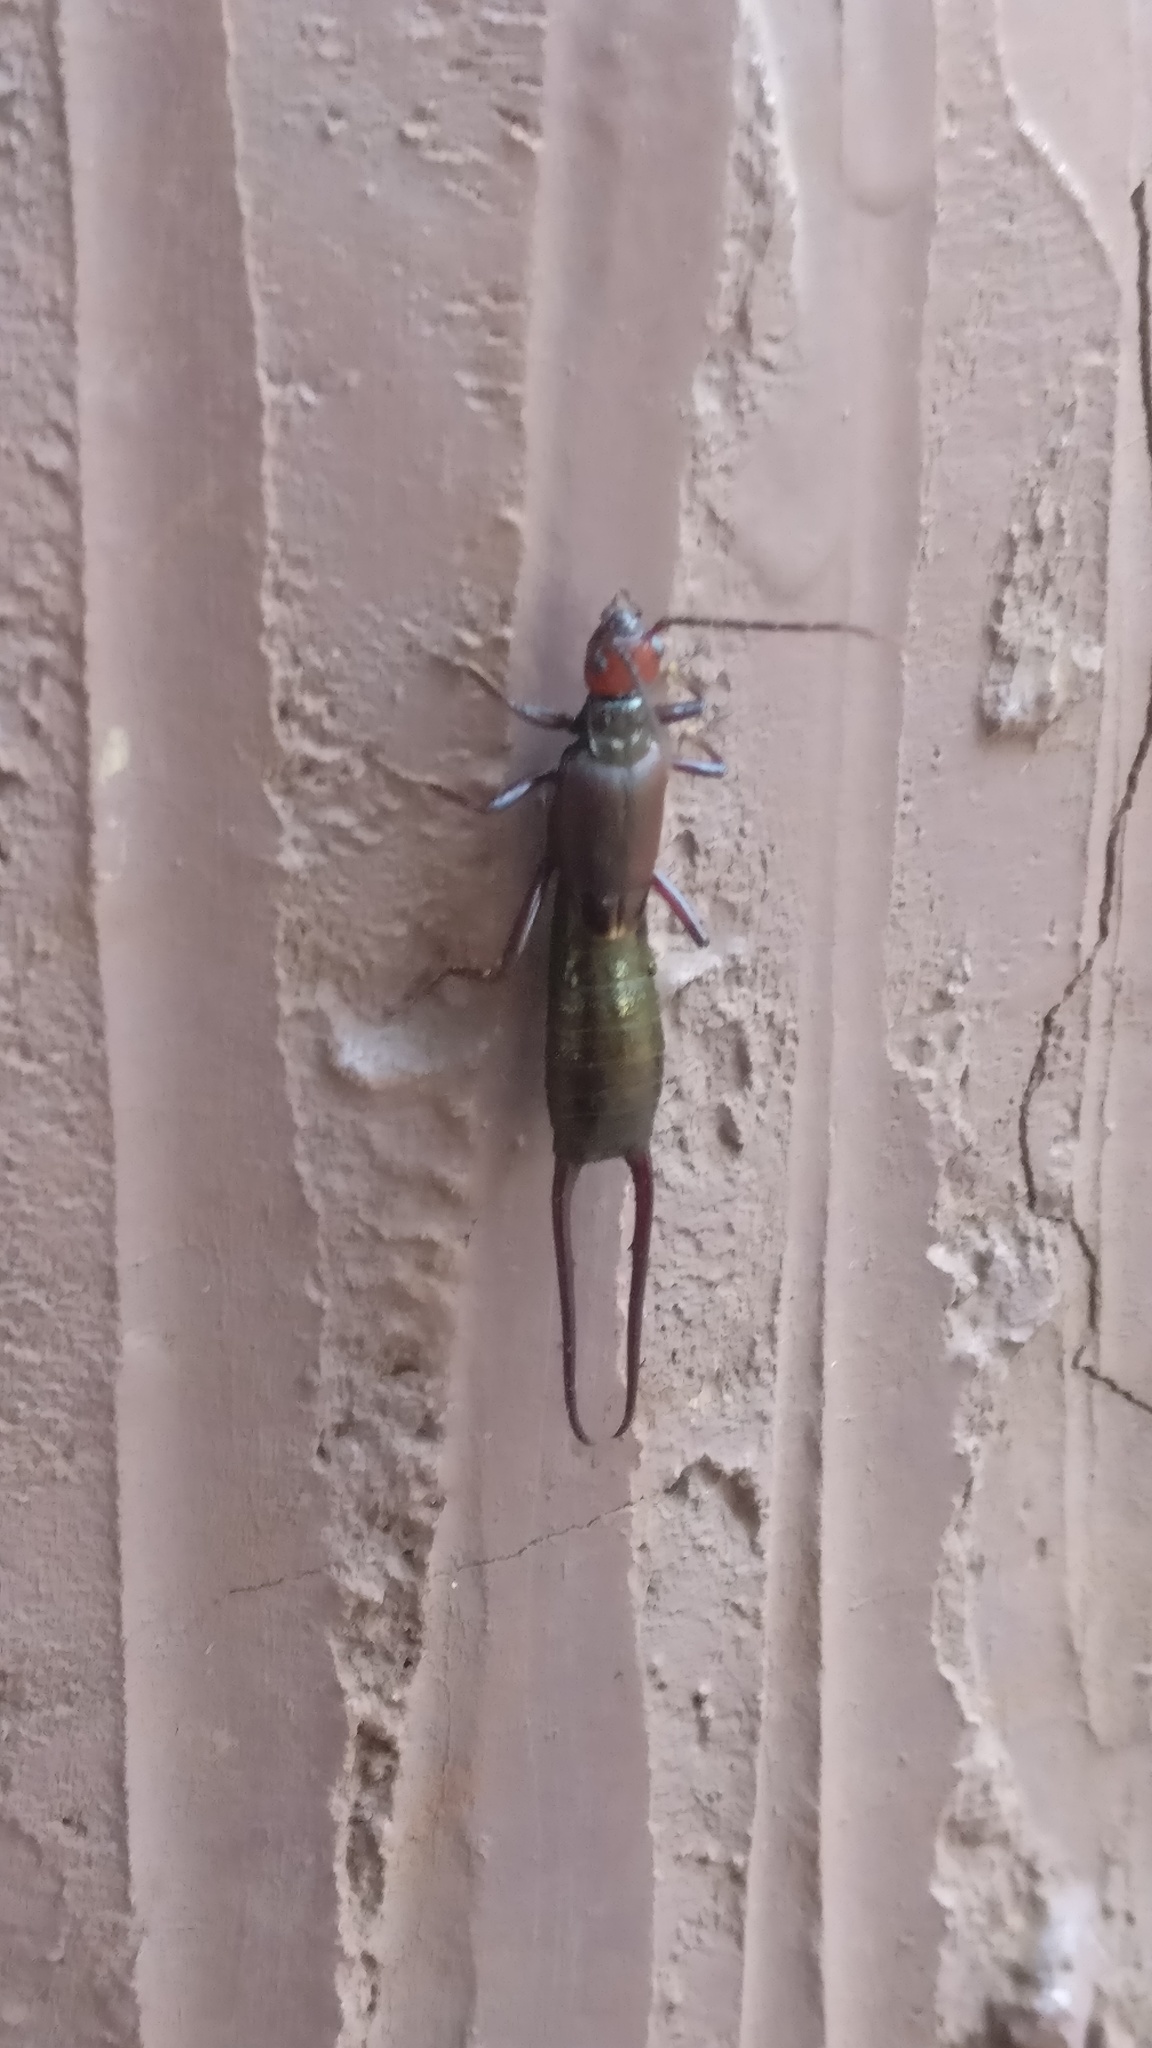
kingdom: Animalia
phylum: Arthropoda
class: Insecta
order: Dermaptera
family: Forficulidae
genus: Eudohrnia
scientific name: Eudohrnia metallica
